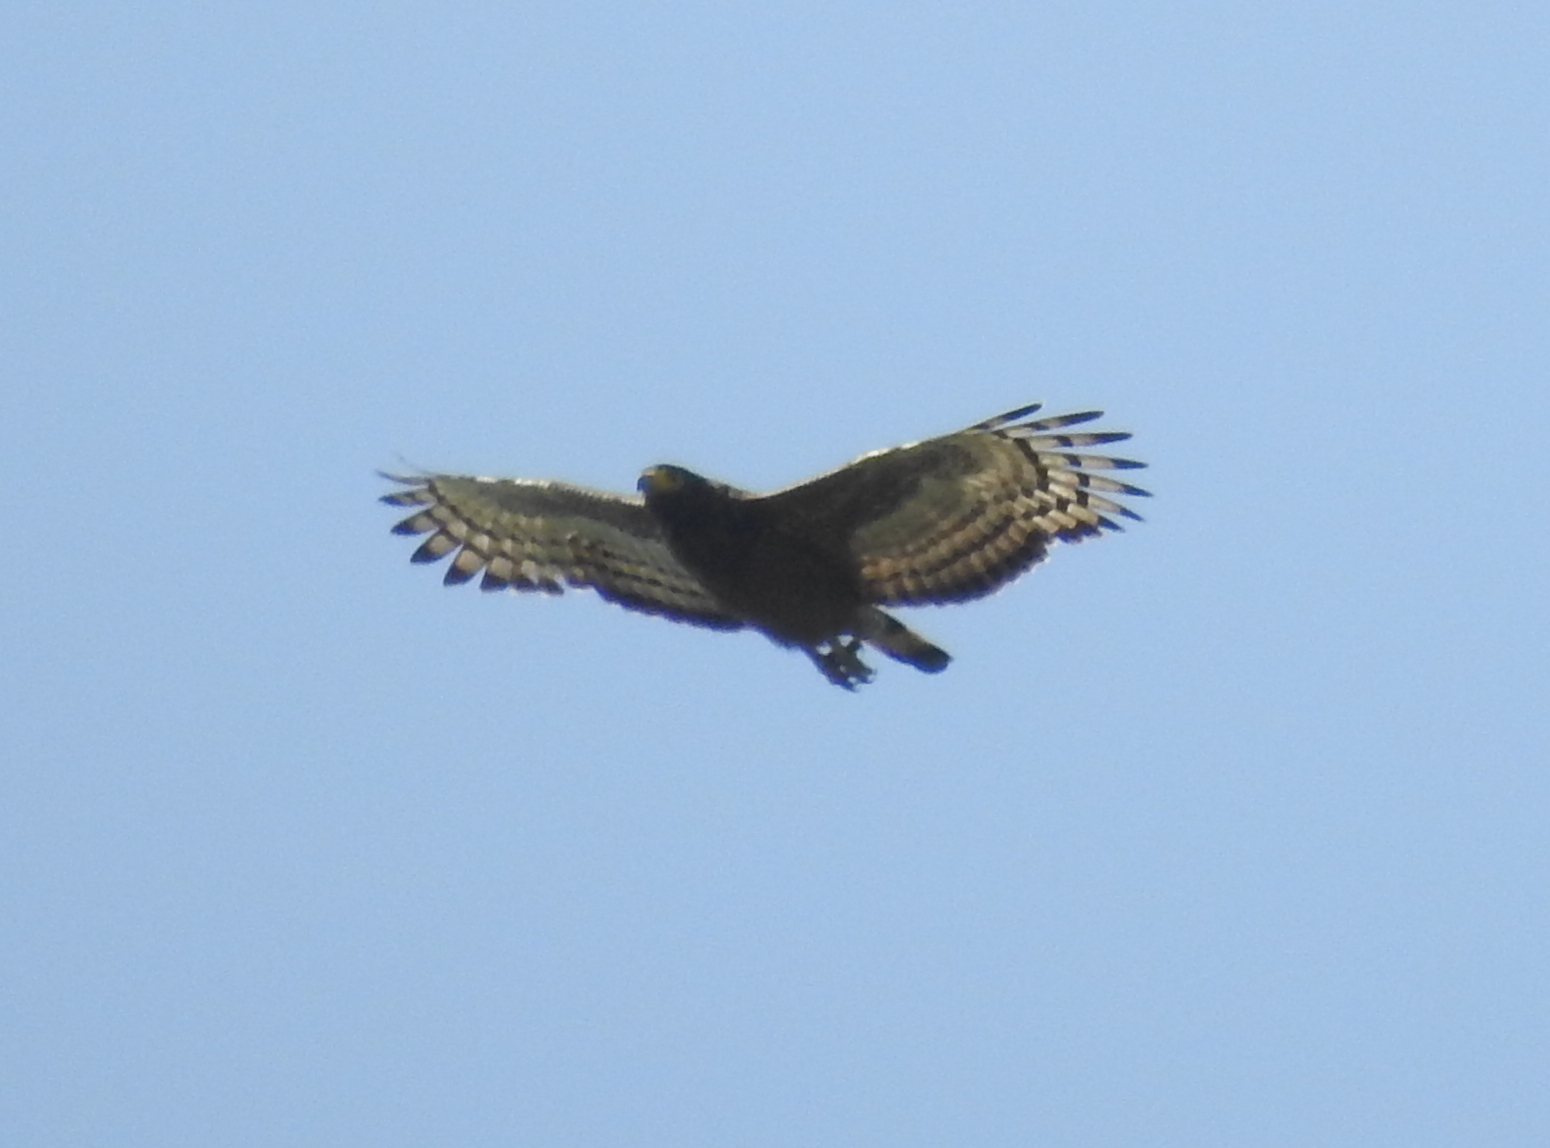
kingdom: Animalia
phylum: Chordata
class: Aves
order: Accipitriformes
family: Accipitridae
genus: Spilornis
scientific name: Spilornis cheela
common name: Crested serpent eagle
